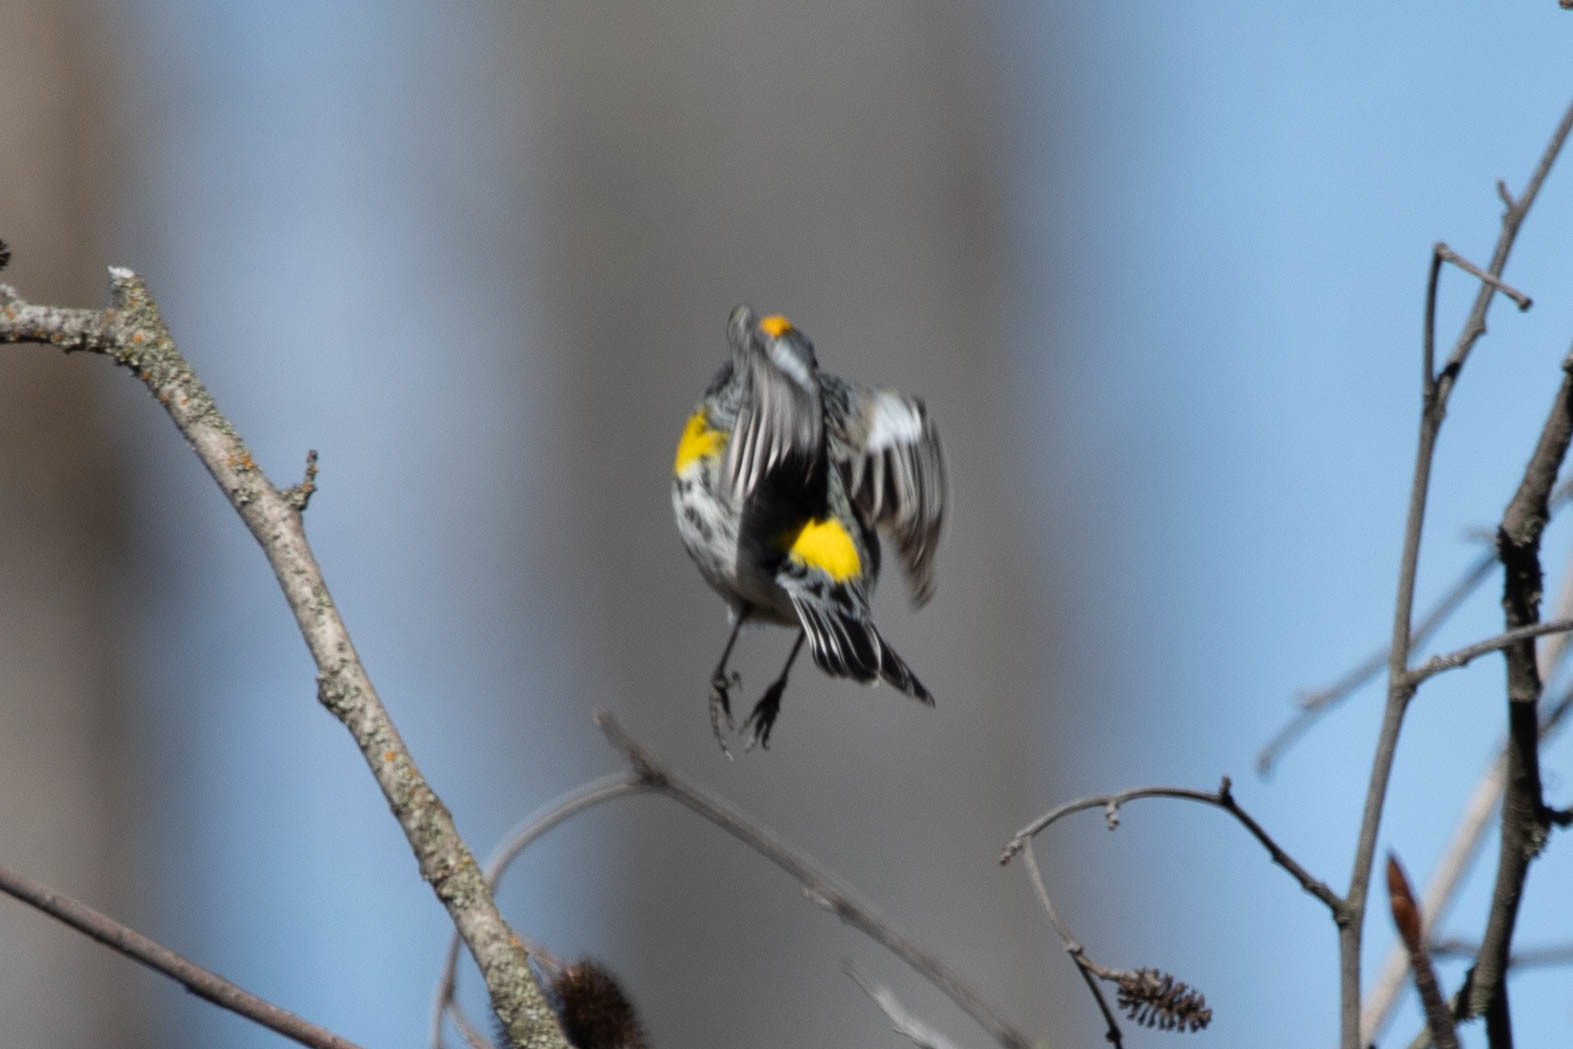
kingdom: Animalia
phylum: Chordata
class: Aves
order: Passeriformes
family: Parulidae
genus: Setophaga
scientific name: Setophaga auduboni
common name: Audubon's warbler
